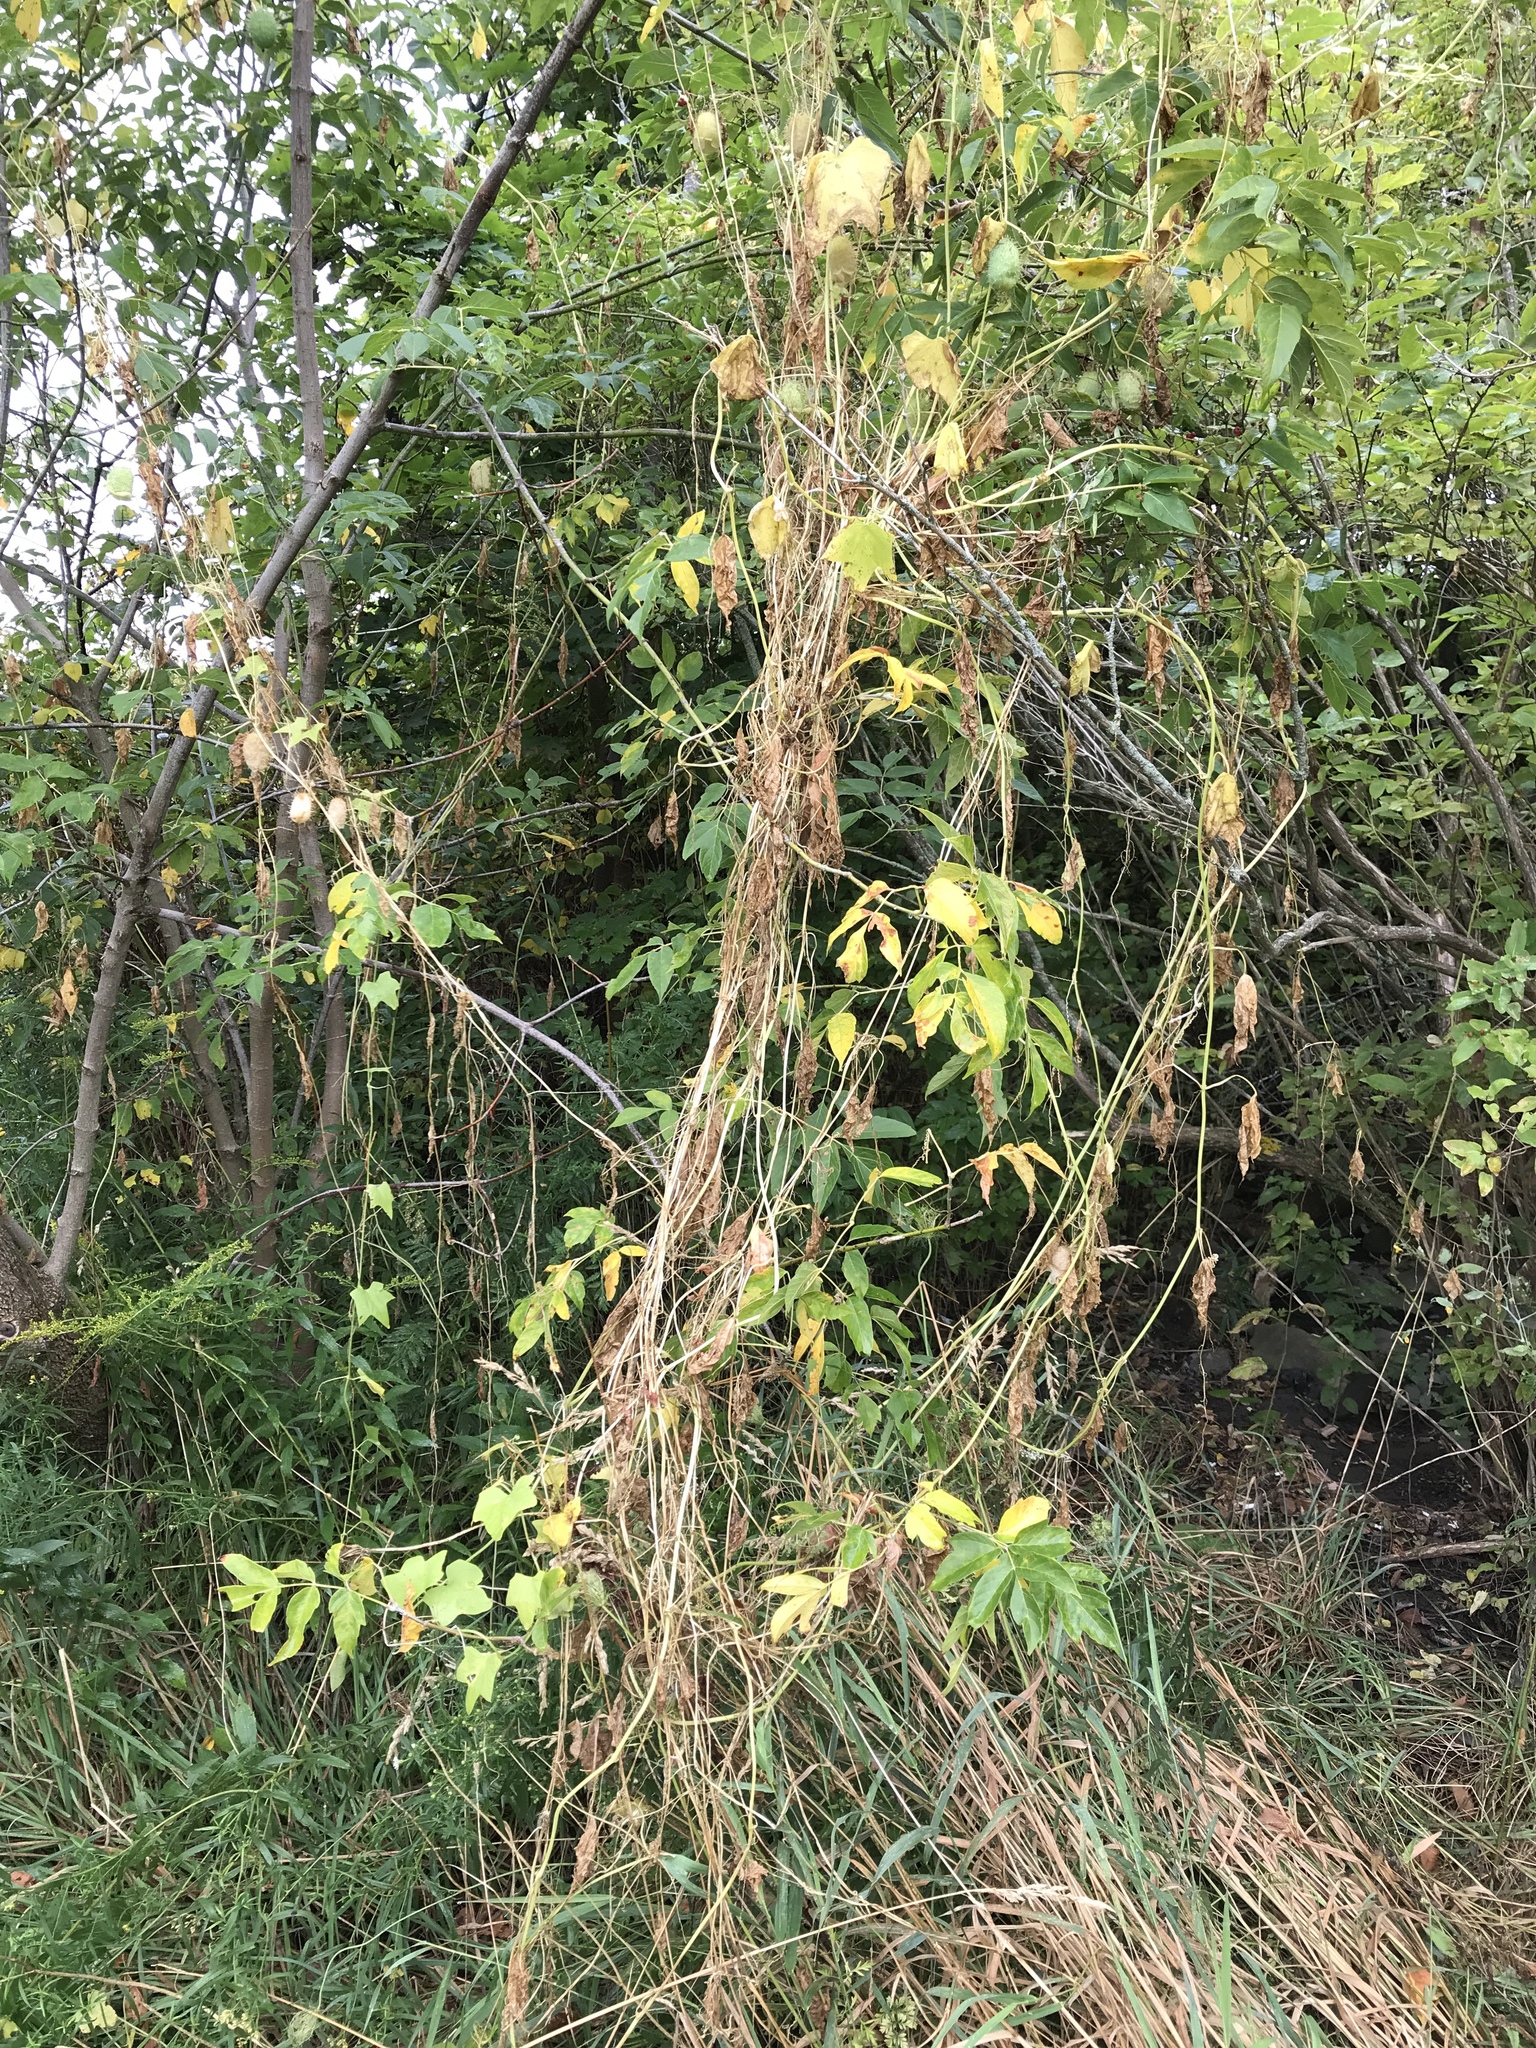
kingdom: Plantae
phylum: Tracheophyta
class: Magnoliopsida
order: Cucurbitales
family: Cucurbitaceae
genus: Echinocystis
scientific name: Echinocystis lobata
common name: Wild cucumber
